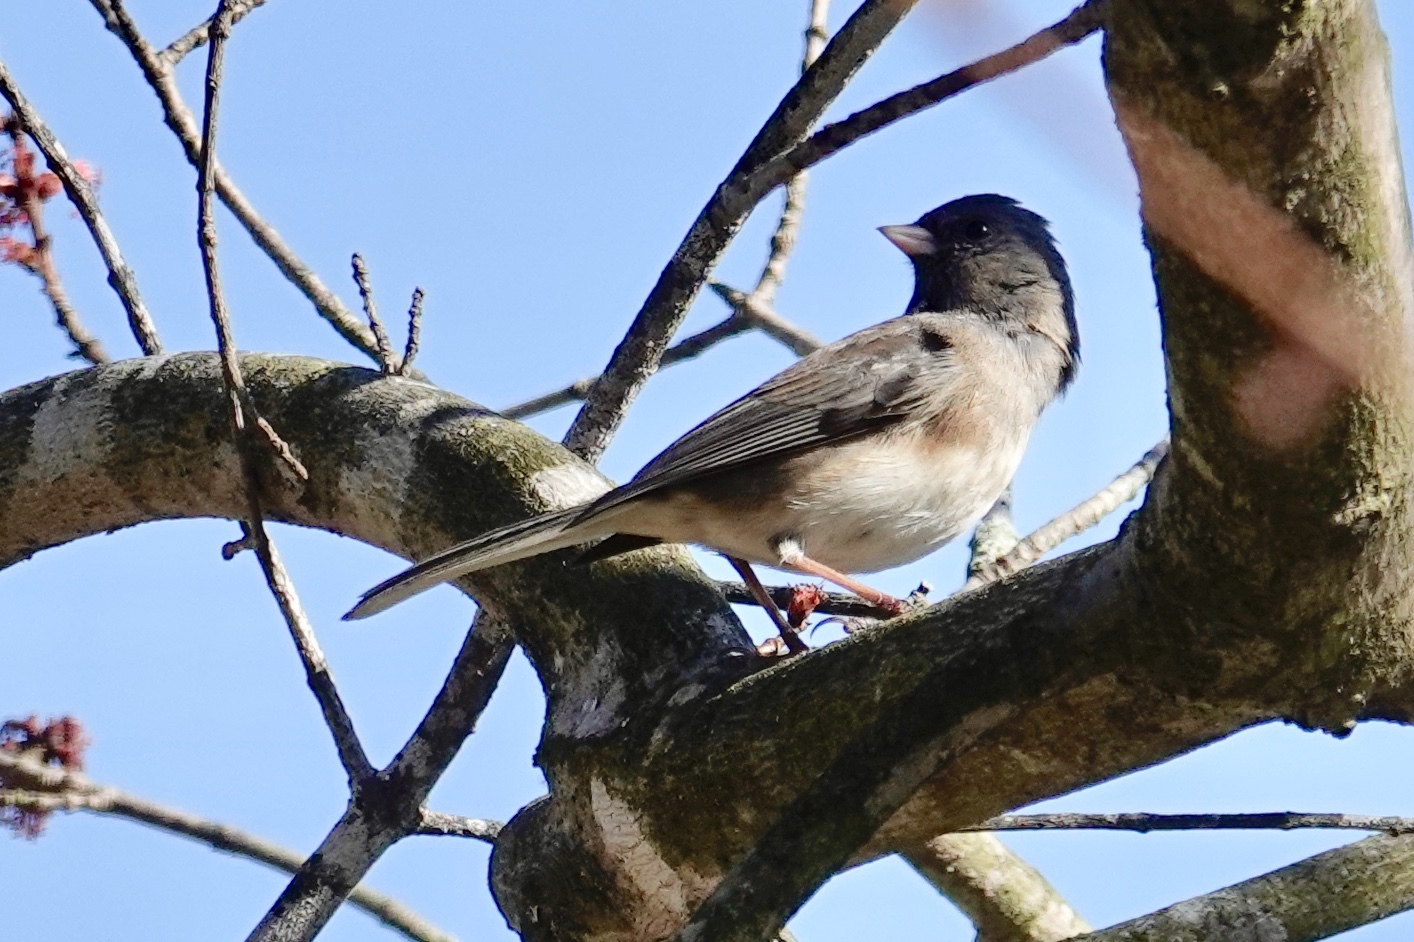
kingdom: Animalia
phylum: Chordata
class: Aves
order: Passeriformes
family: Passerellidae
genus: Junco
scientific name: Junco hyemalis
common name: Dark-eyed junco
